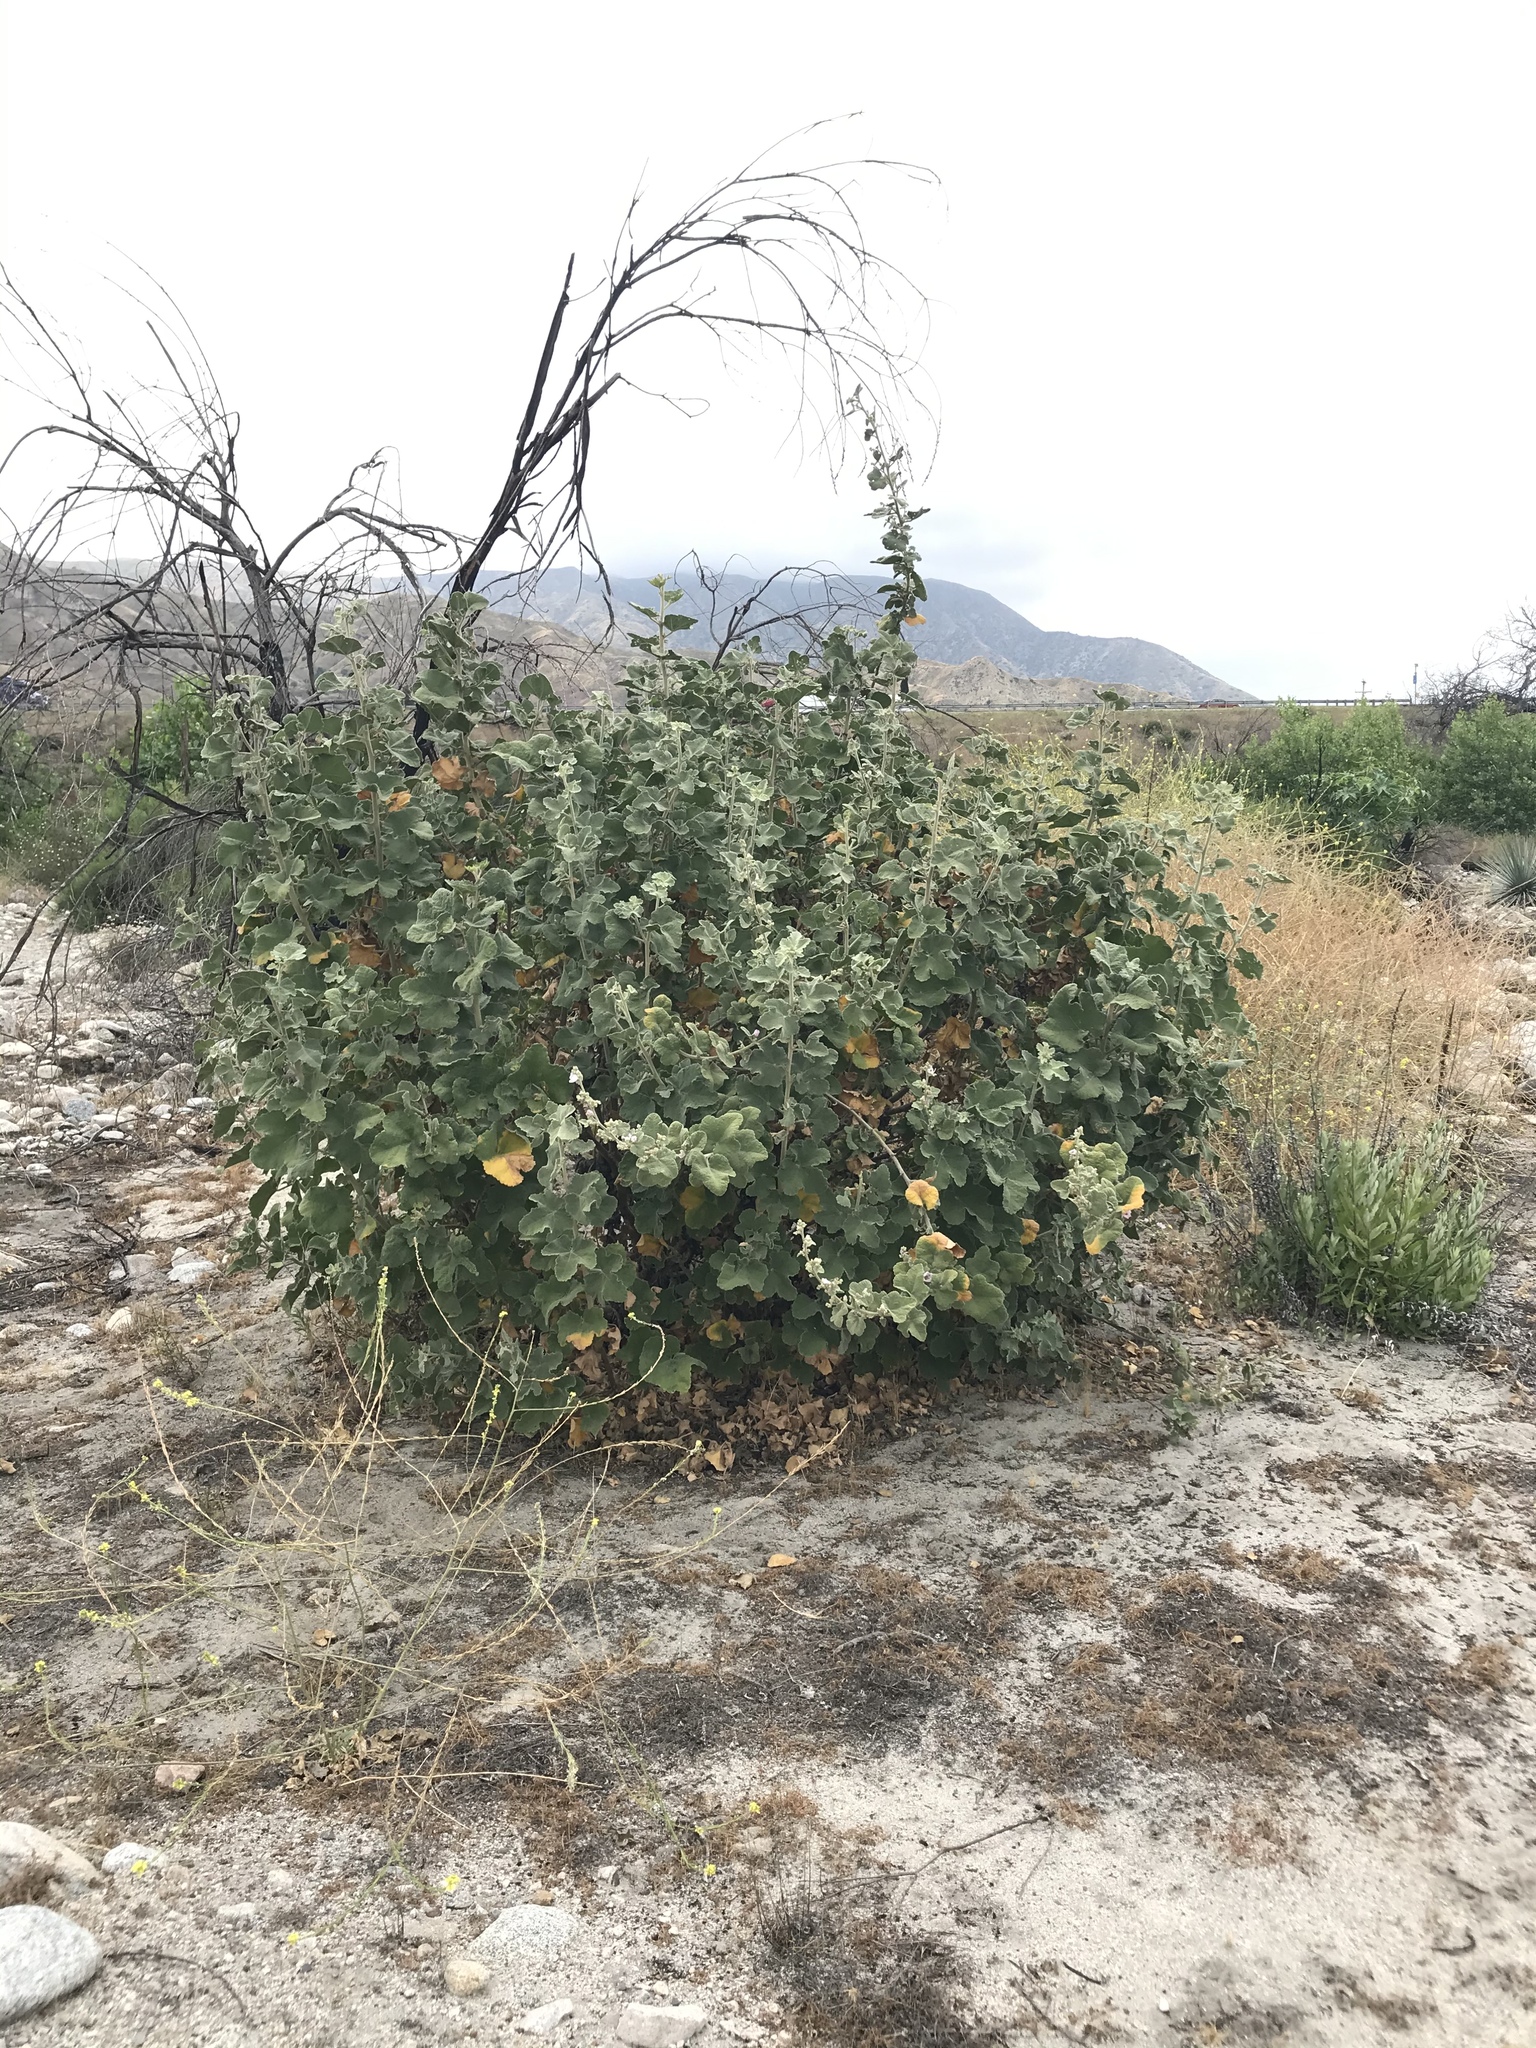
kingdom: Plantae
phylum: Tracheophyta
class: Magnoliopsida
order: Malvales
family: Malvaceae
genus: Malacothamnus
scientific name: Malacothamnus davidsonii
